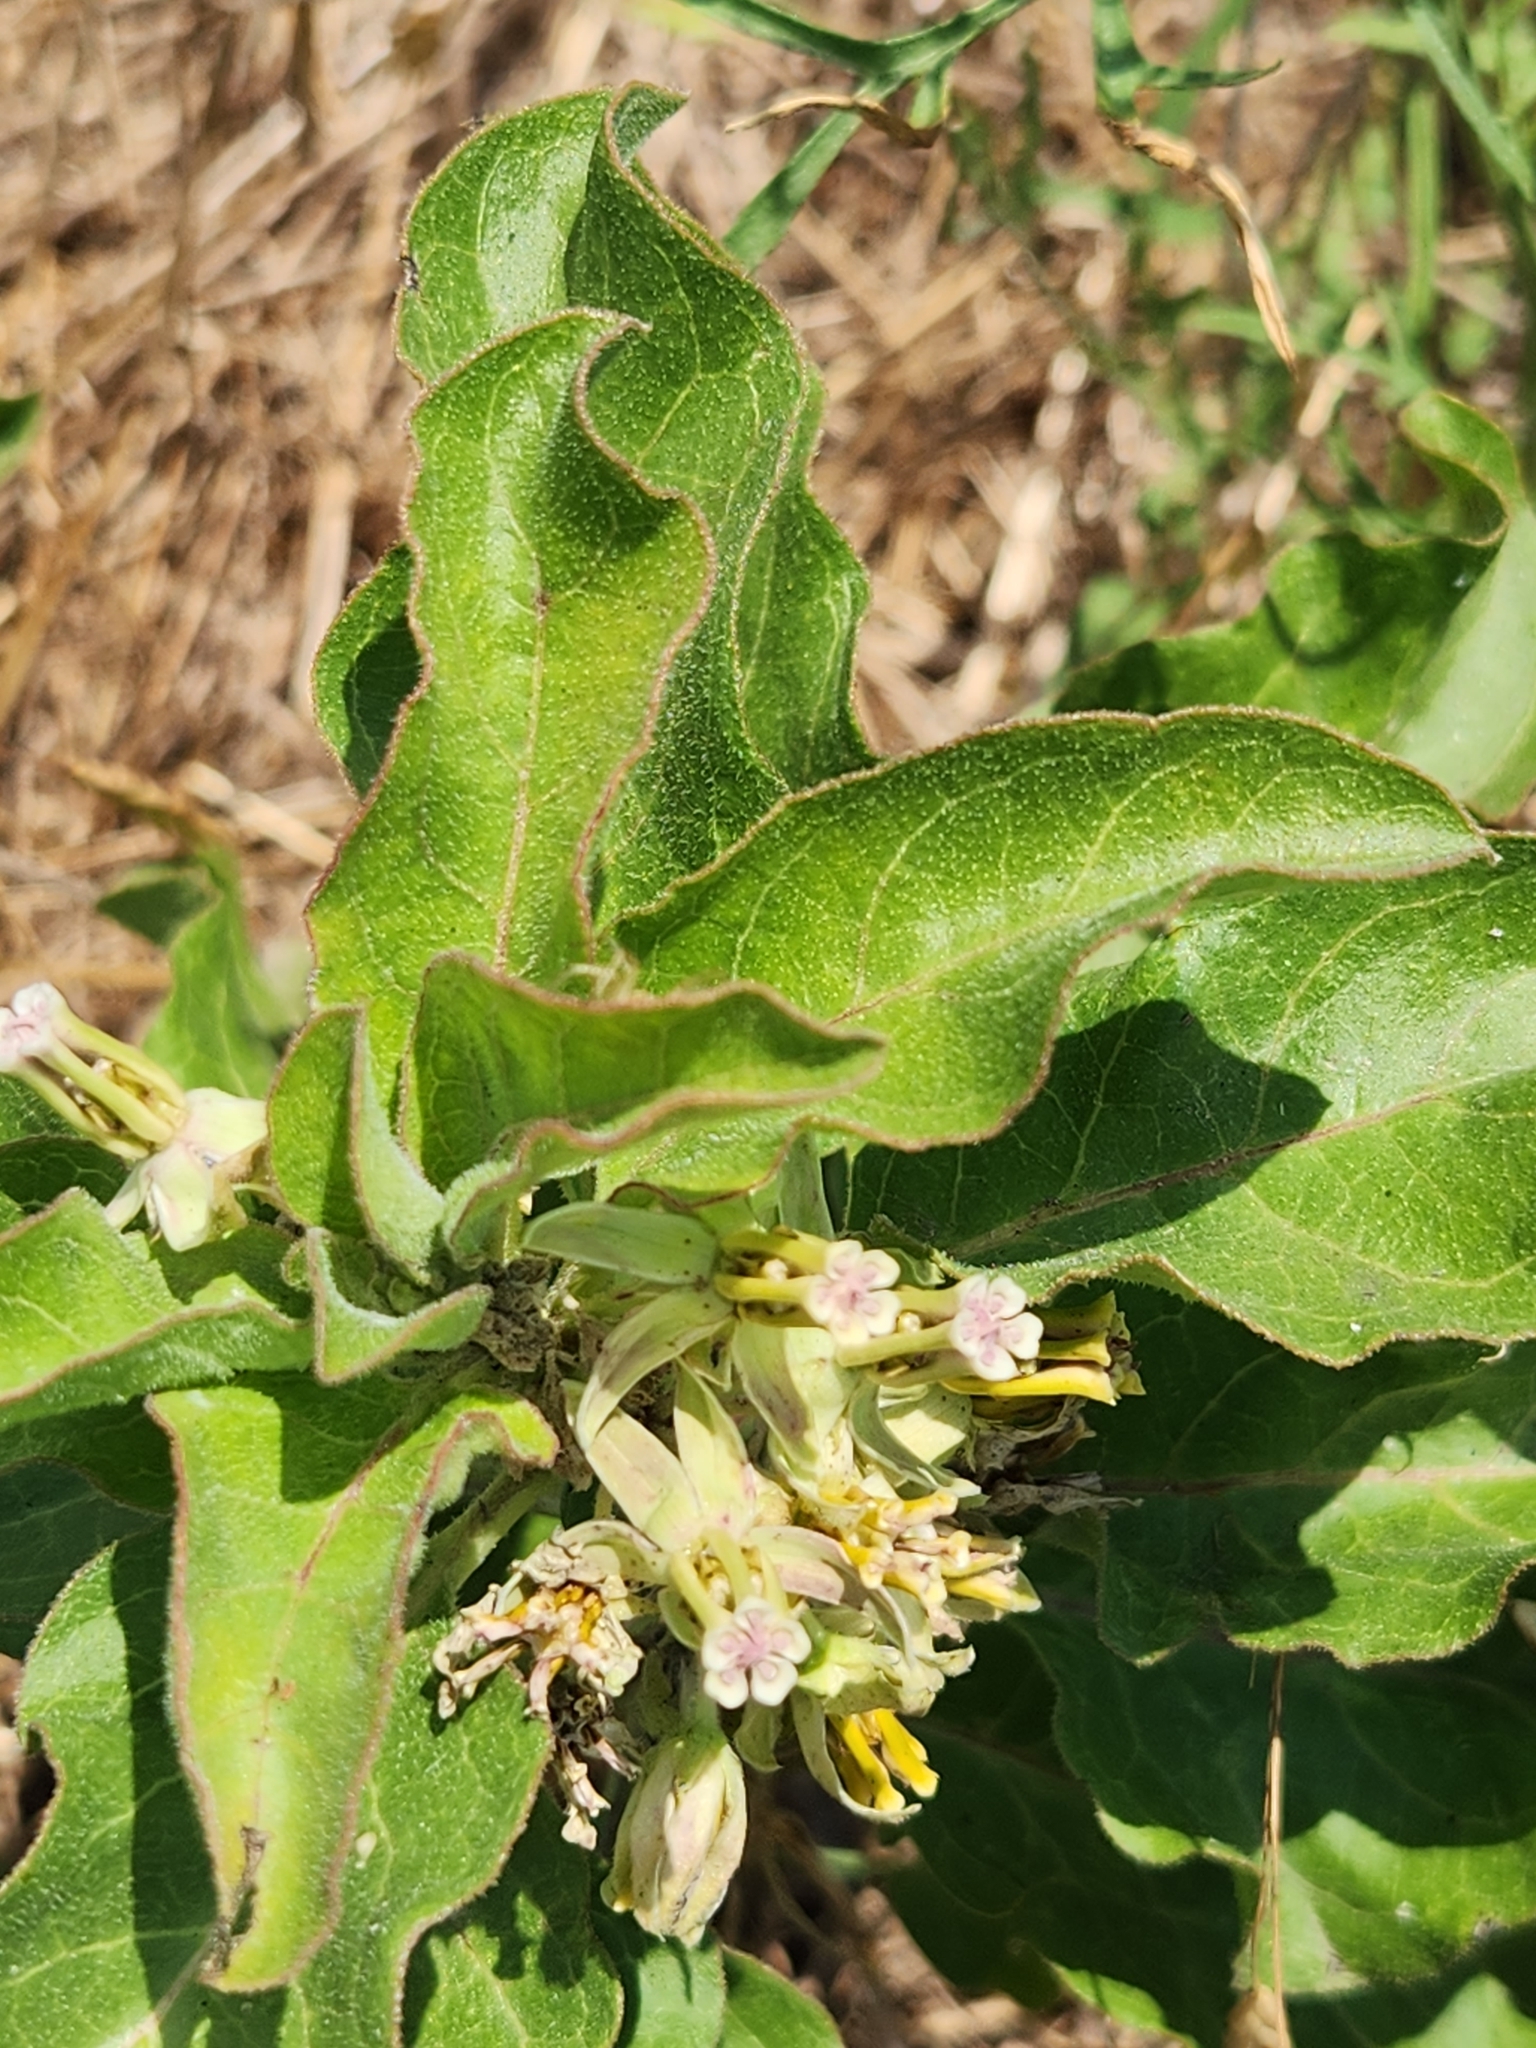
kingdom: Plantae
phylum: Tracheophyta
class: Magnoliopsida
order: Gentianales
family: Apocynaceae
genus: Asclepias
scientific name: Asclepias oenotheroides
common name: Zizotes milkweed
